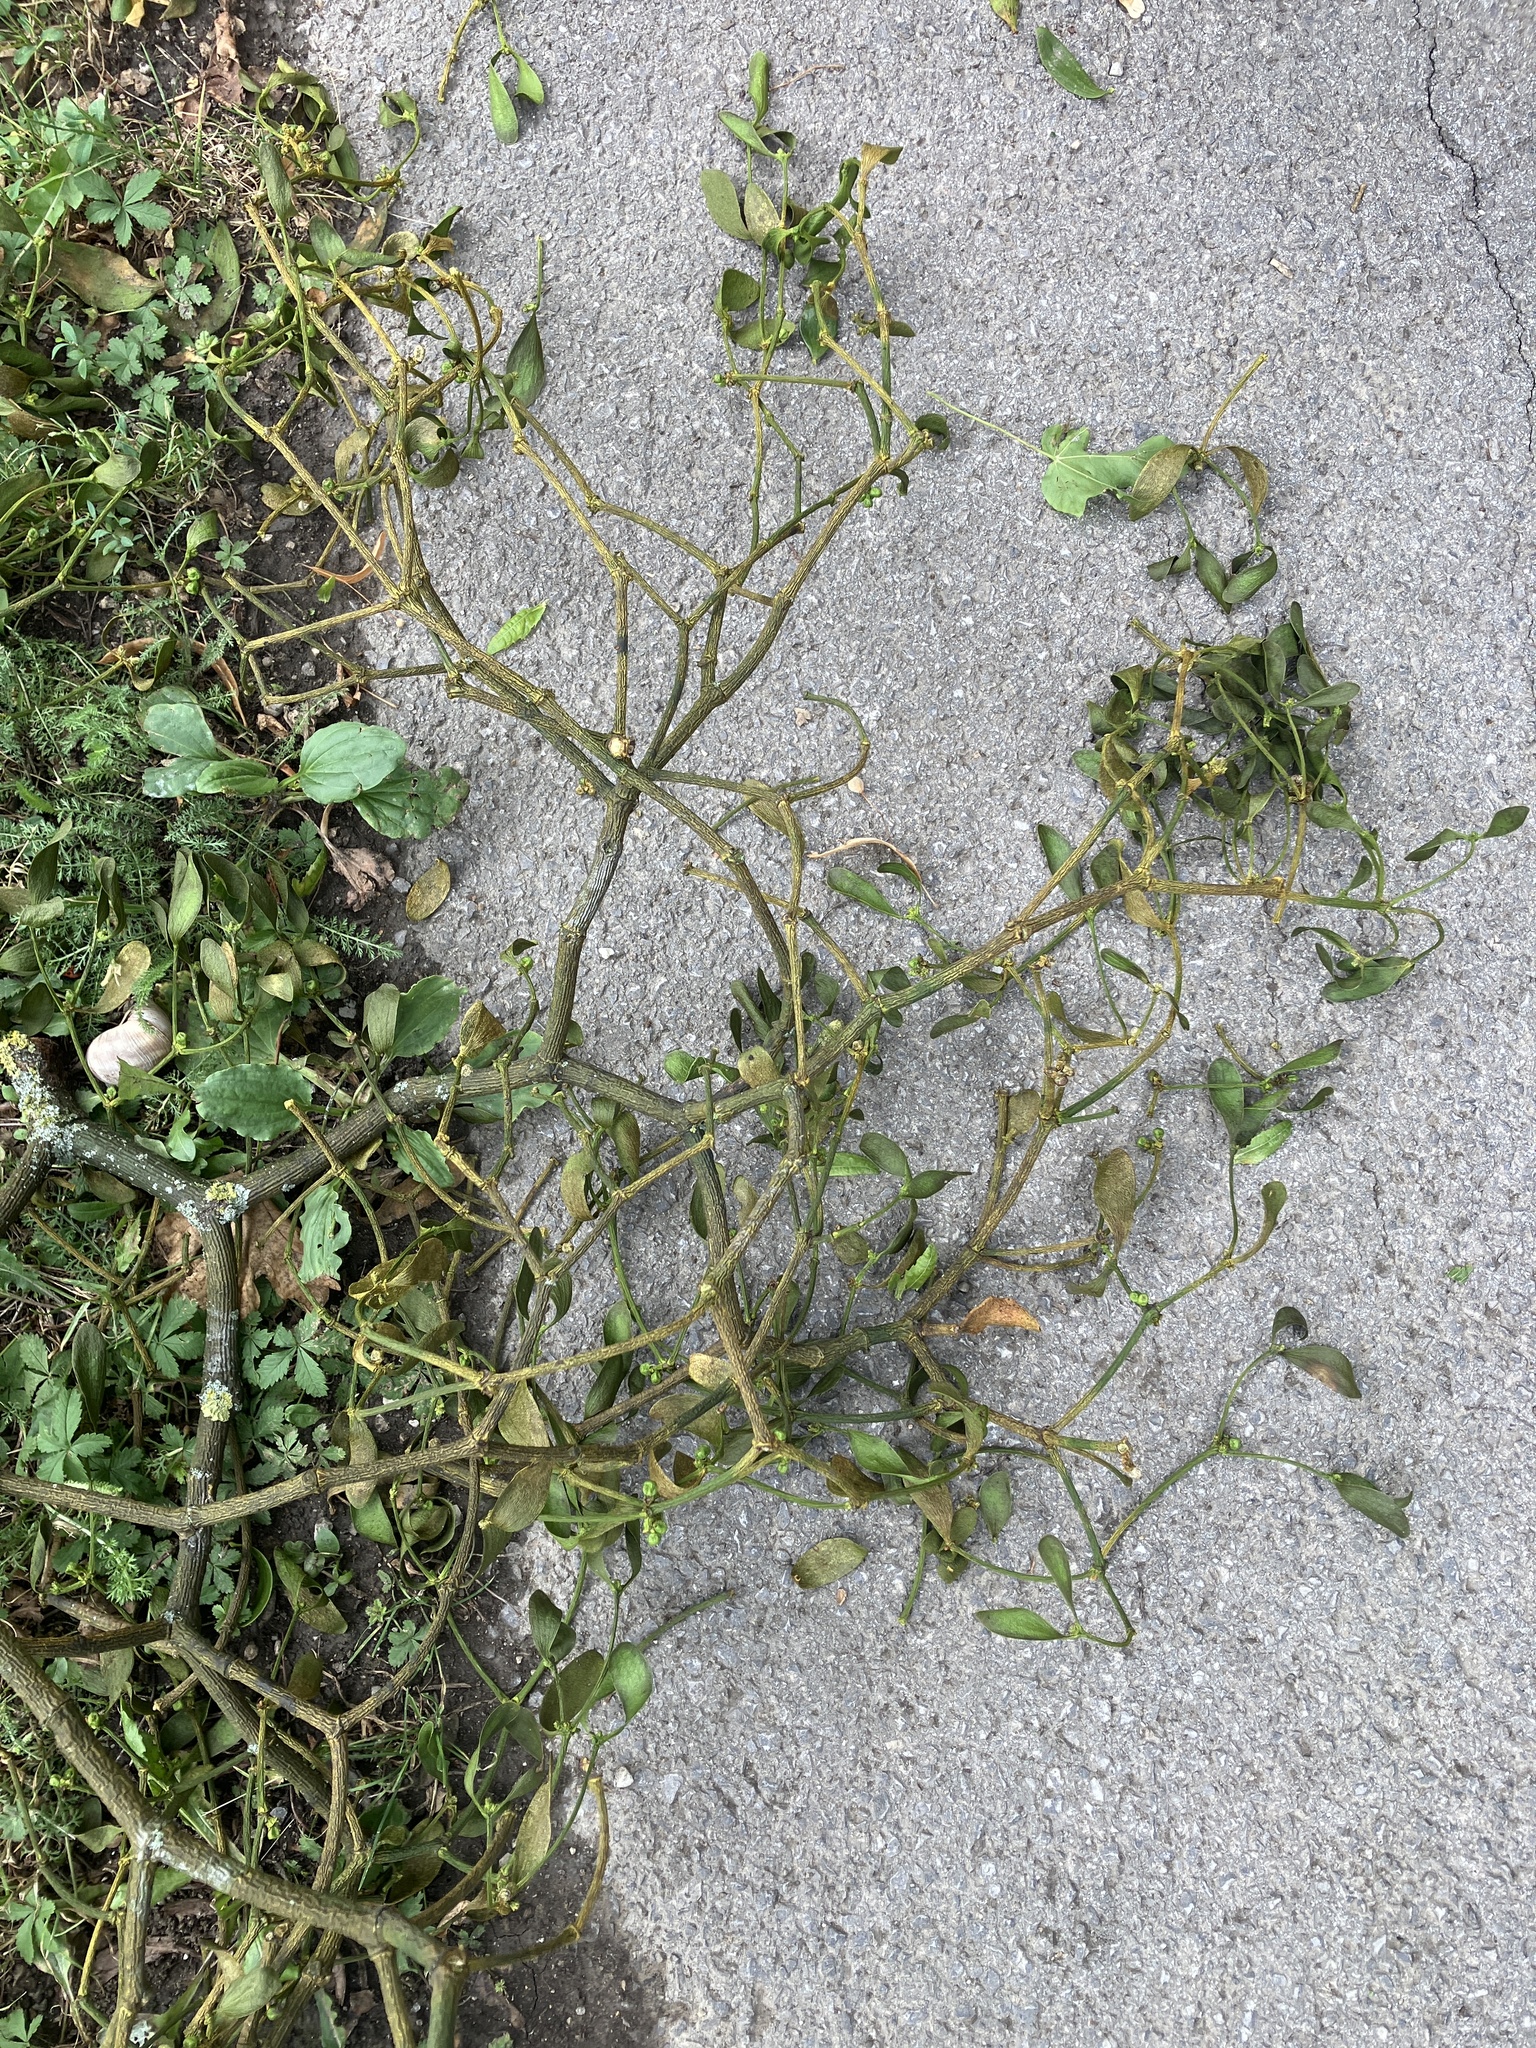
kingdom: Plantae
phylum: Tracheophyta
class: Magnoliopsida
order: Santalales
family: Viscaceae
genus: Viscum
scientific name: Viscum album
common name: Mistletoe
